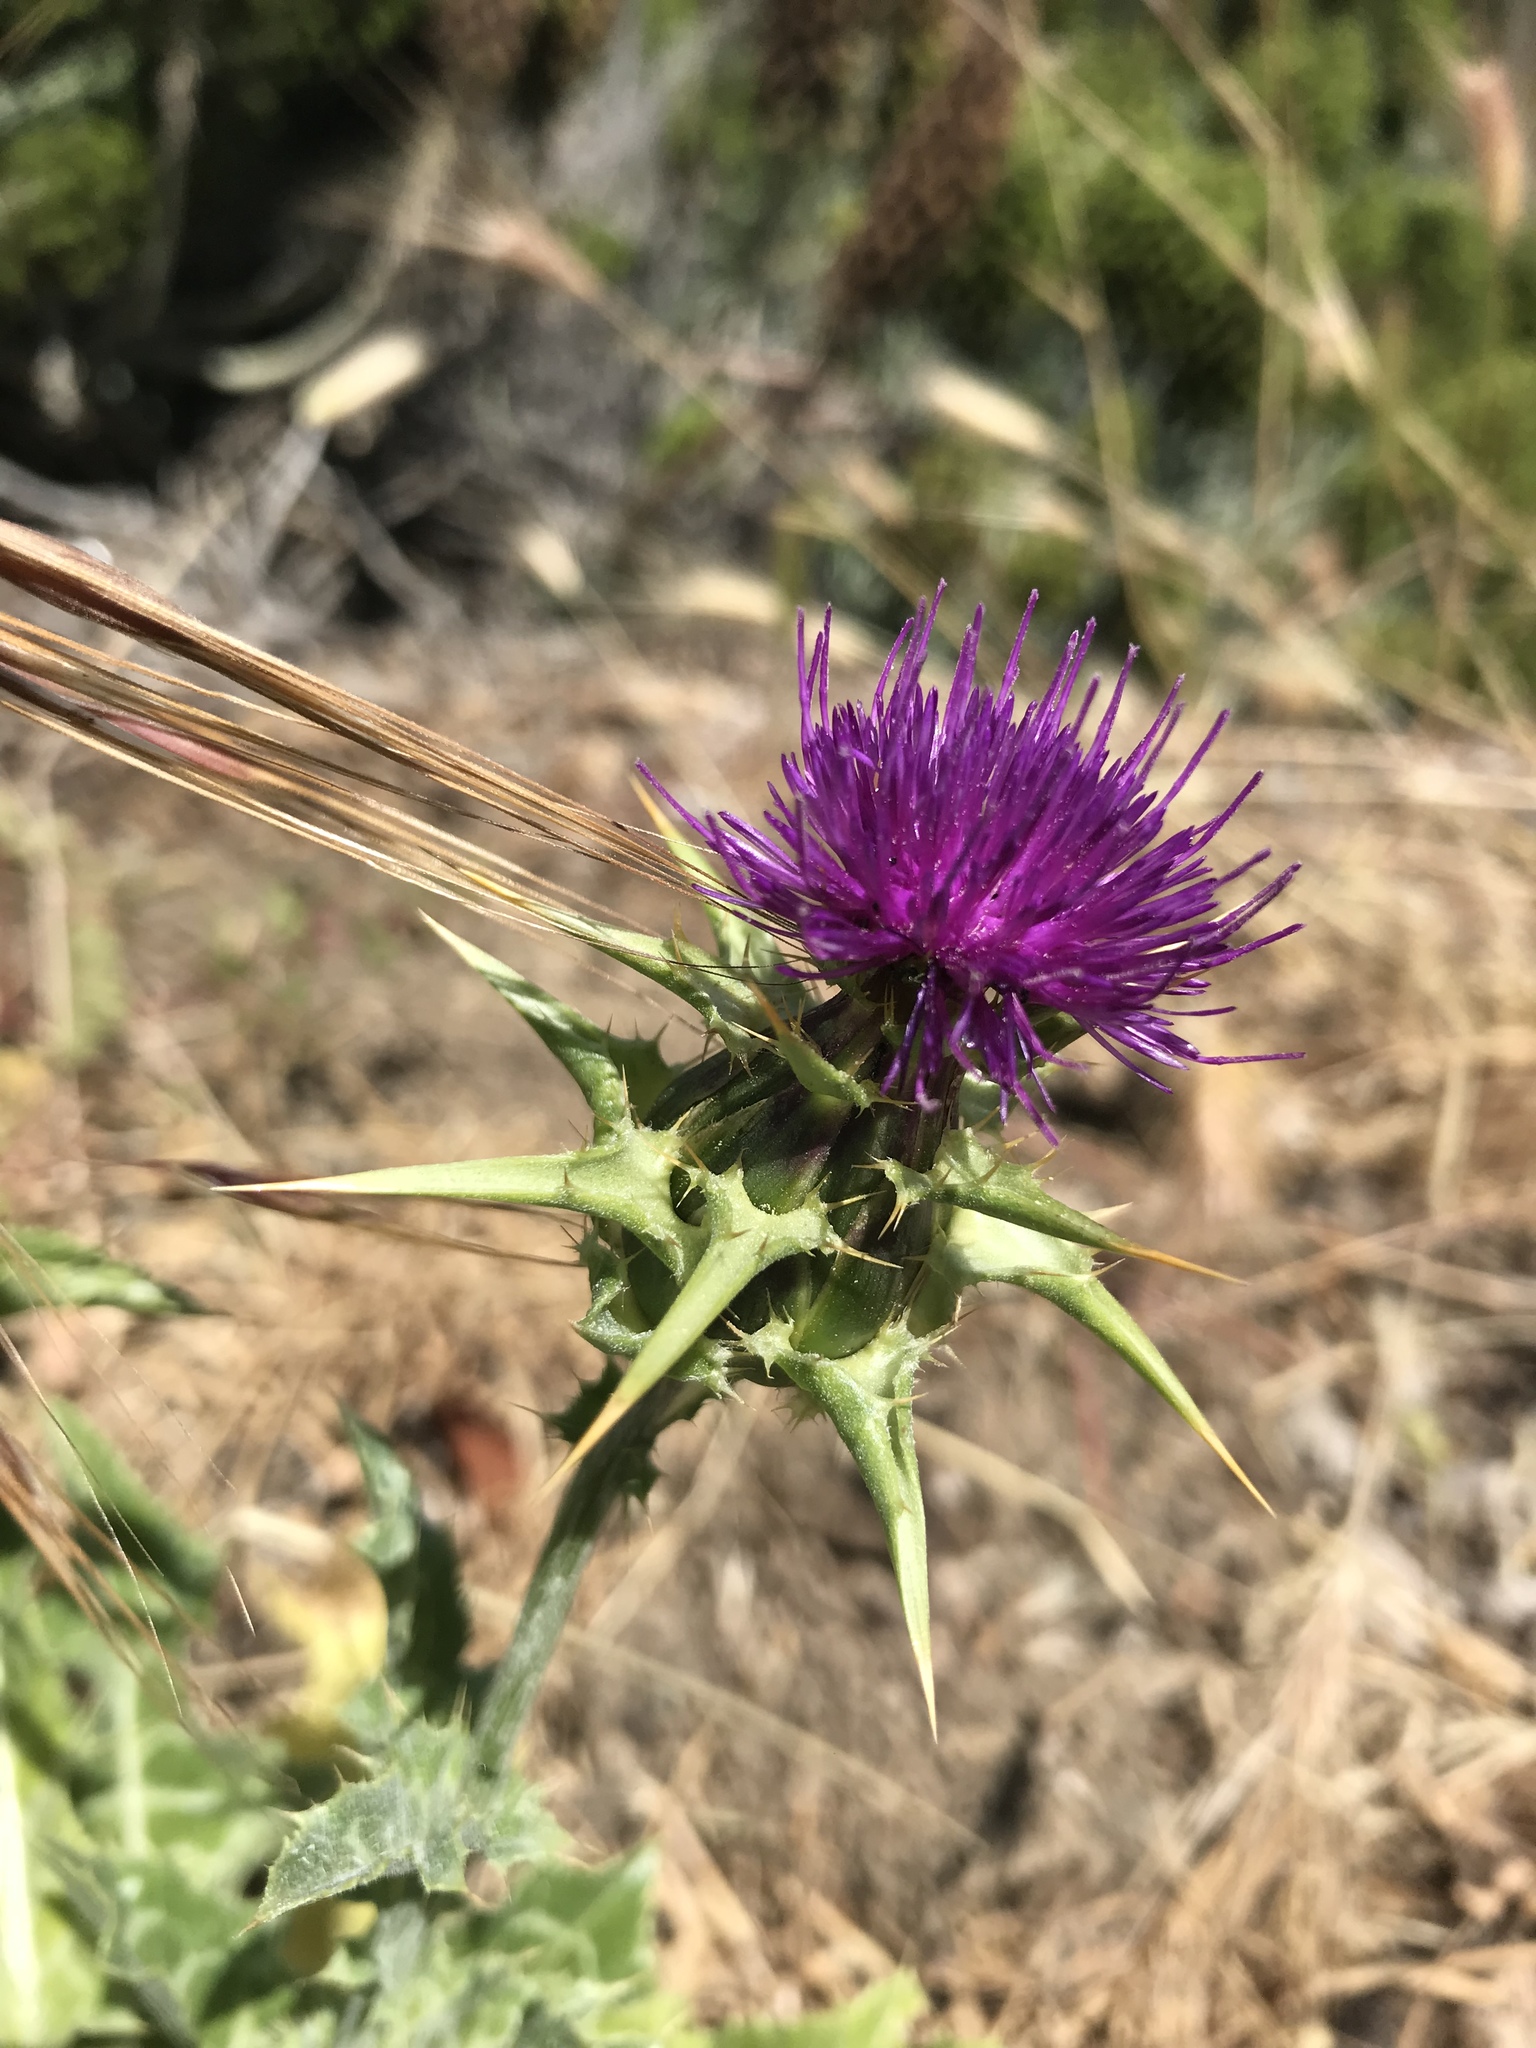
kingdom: Plantae
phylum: Tracheophyta
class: Magnoliopsida
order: Asterales
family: Asteraceae
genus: Silybum
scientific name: Silybum marianum
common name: Milk thistle
